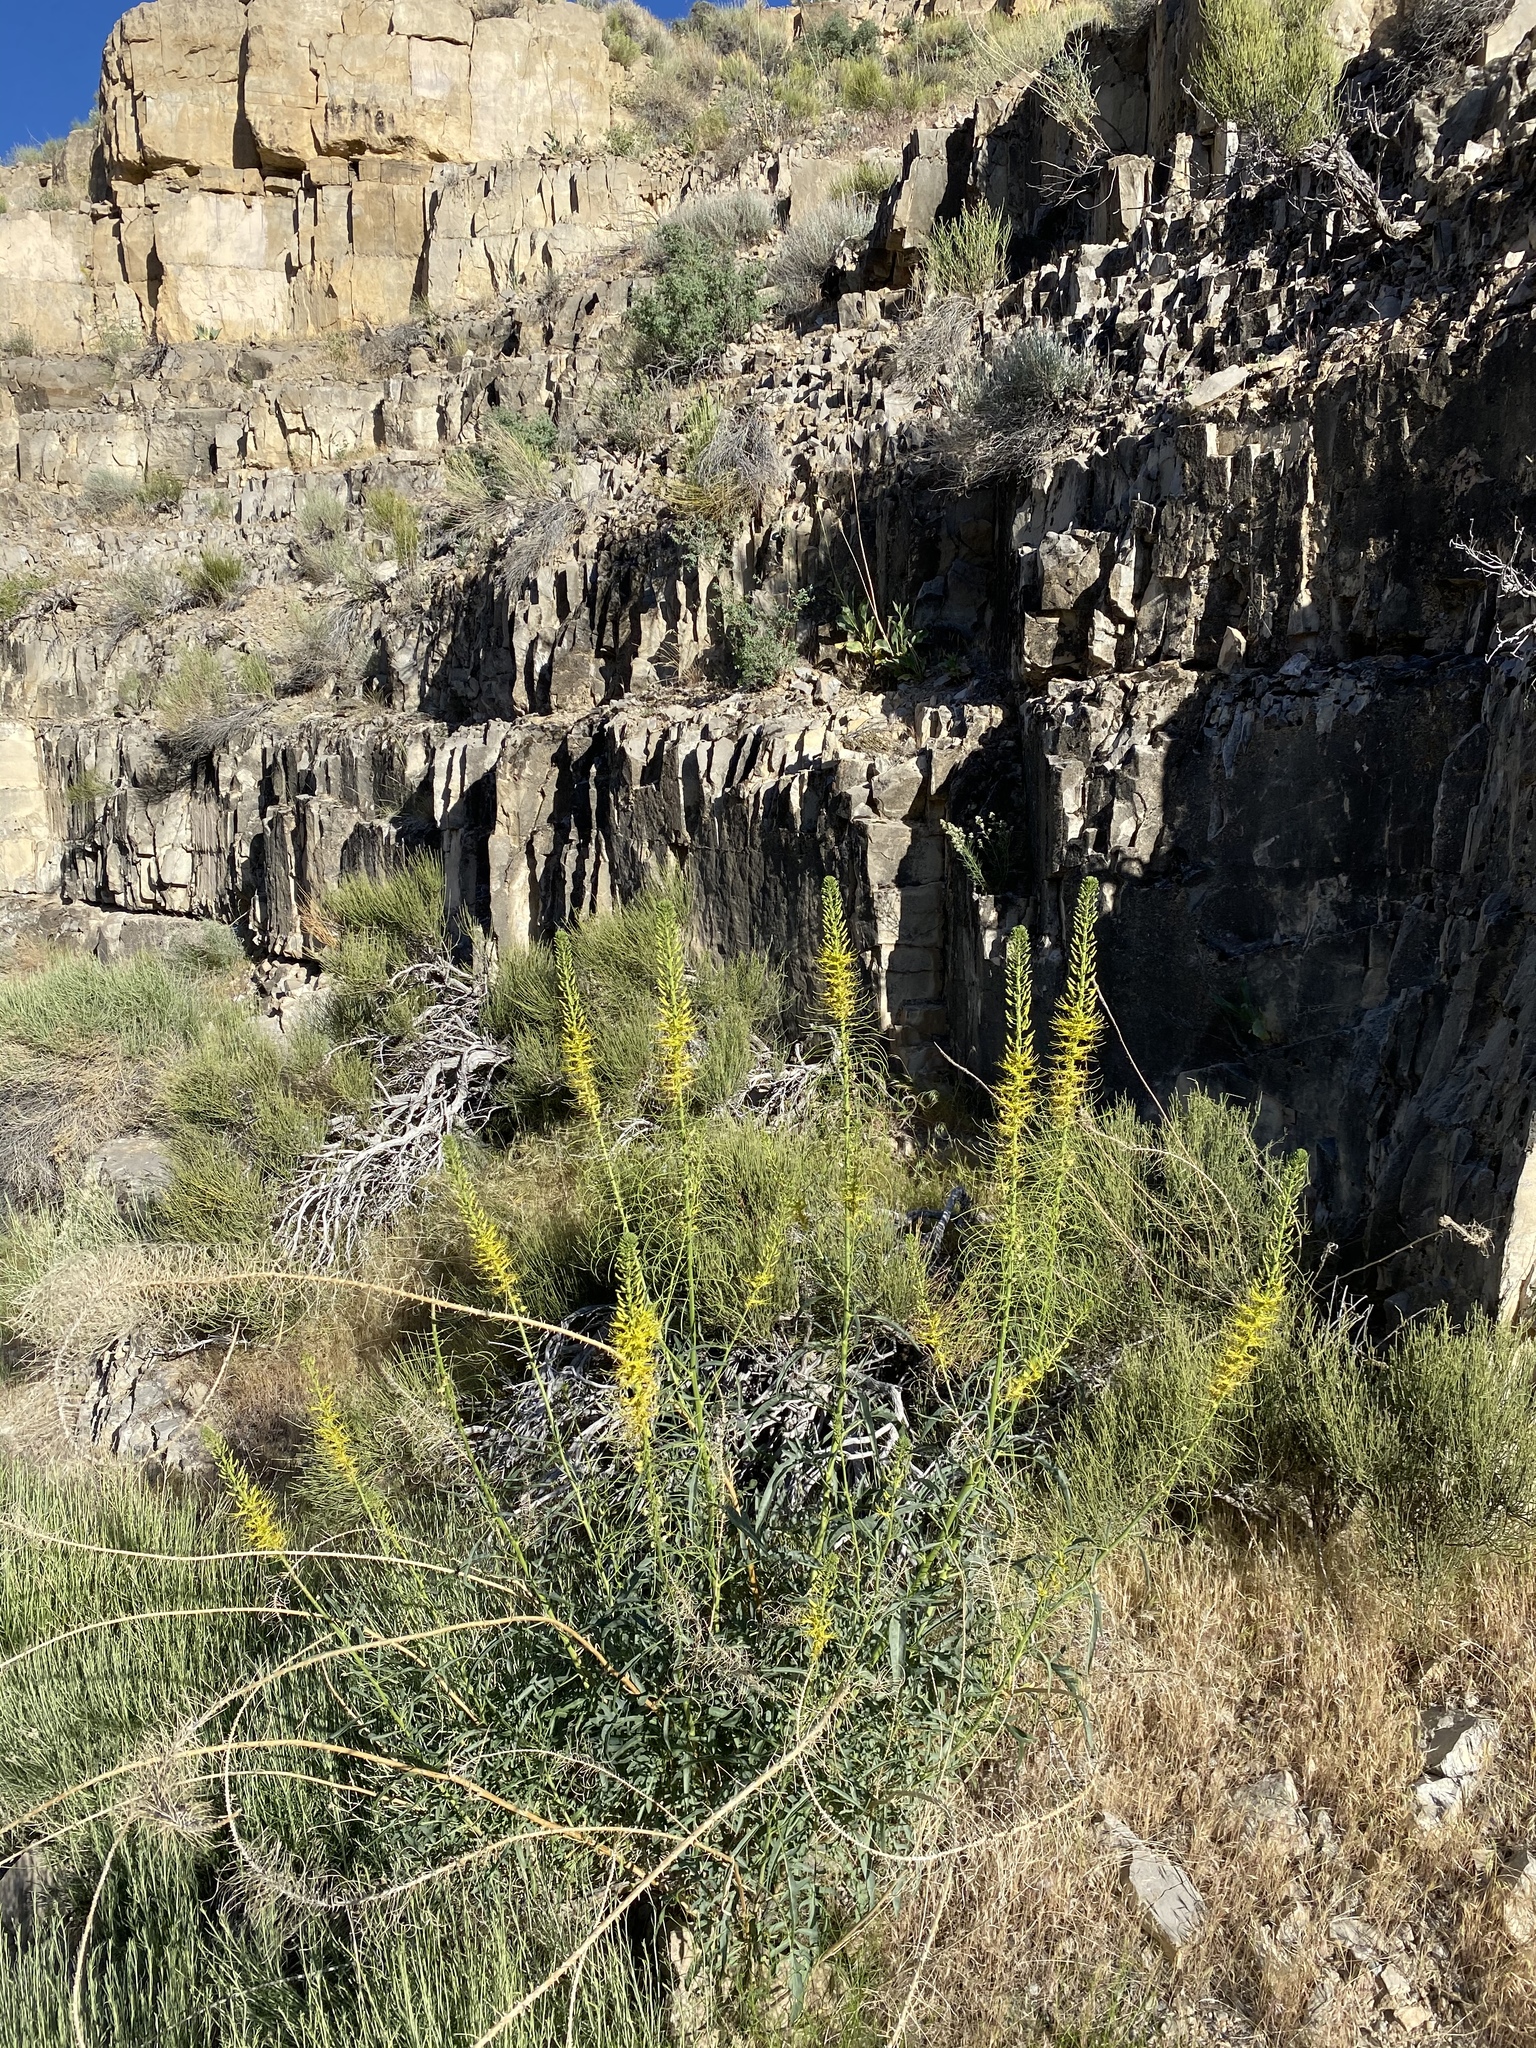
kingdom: Plantae
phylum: Tracheophyta
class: Magnoliopsida
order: Brassicales
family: Brassicaceae
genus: Stanleya
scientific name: Stanleya pinnata
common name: Prince's-plume
